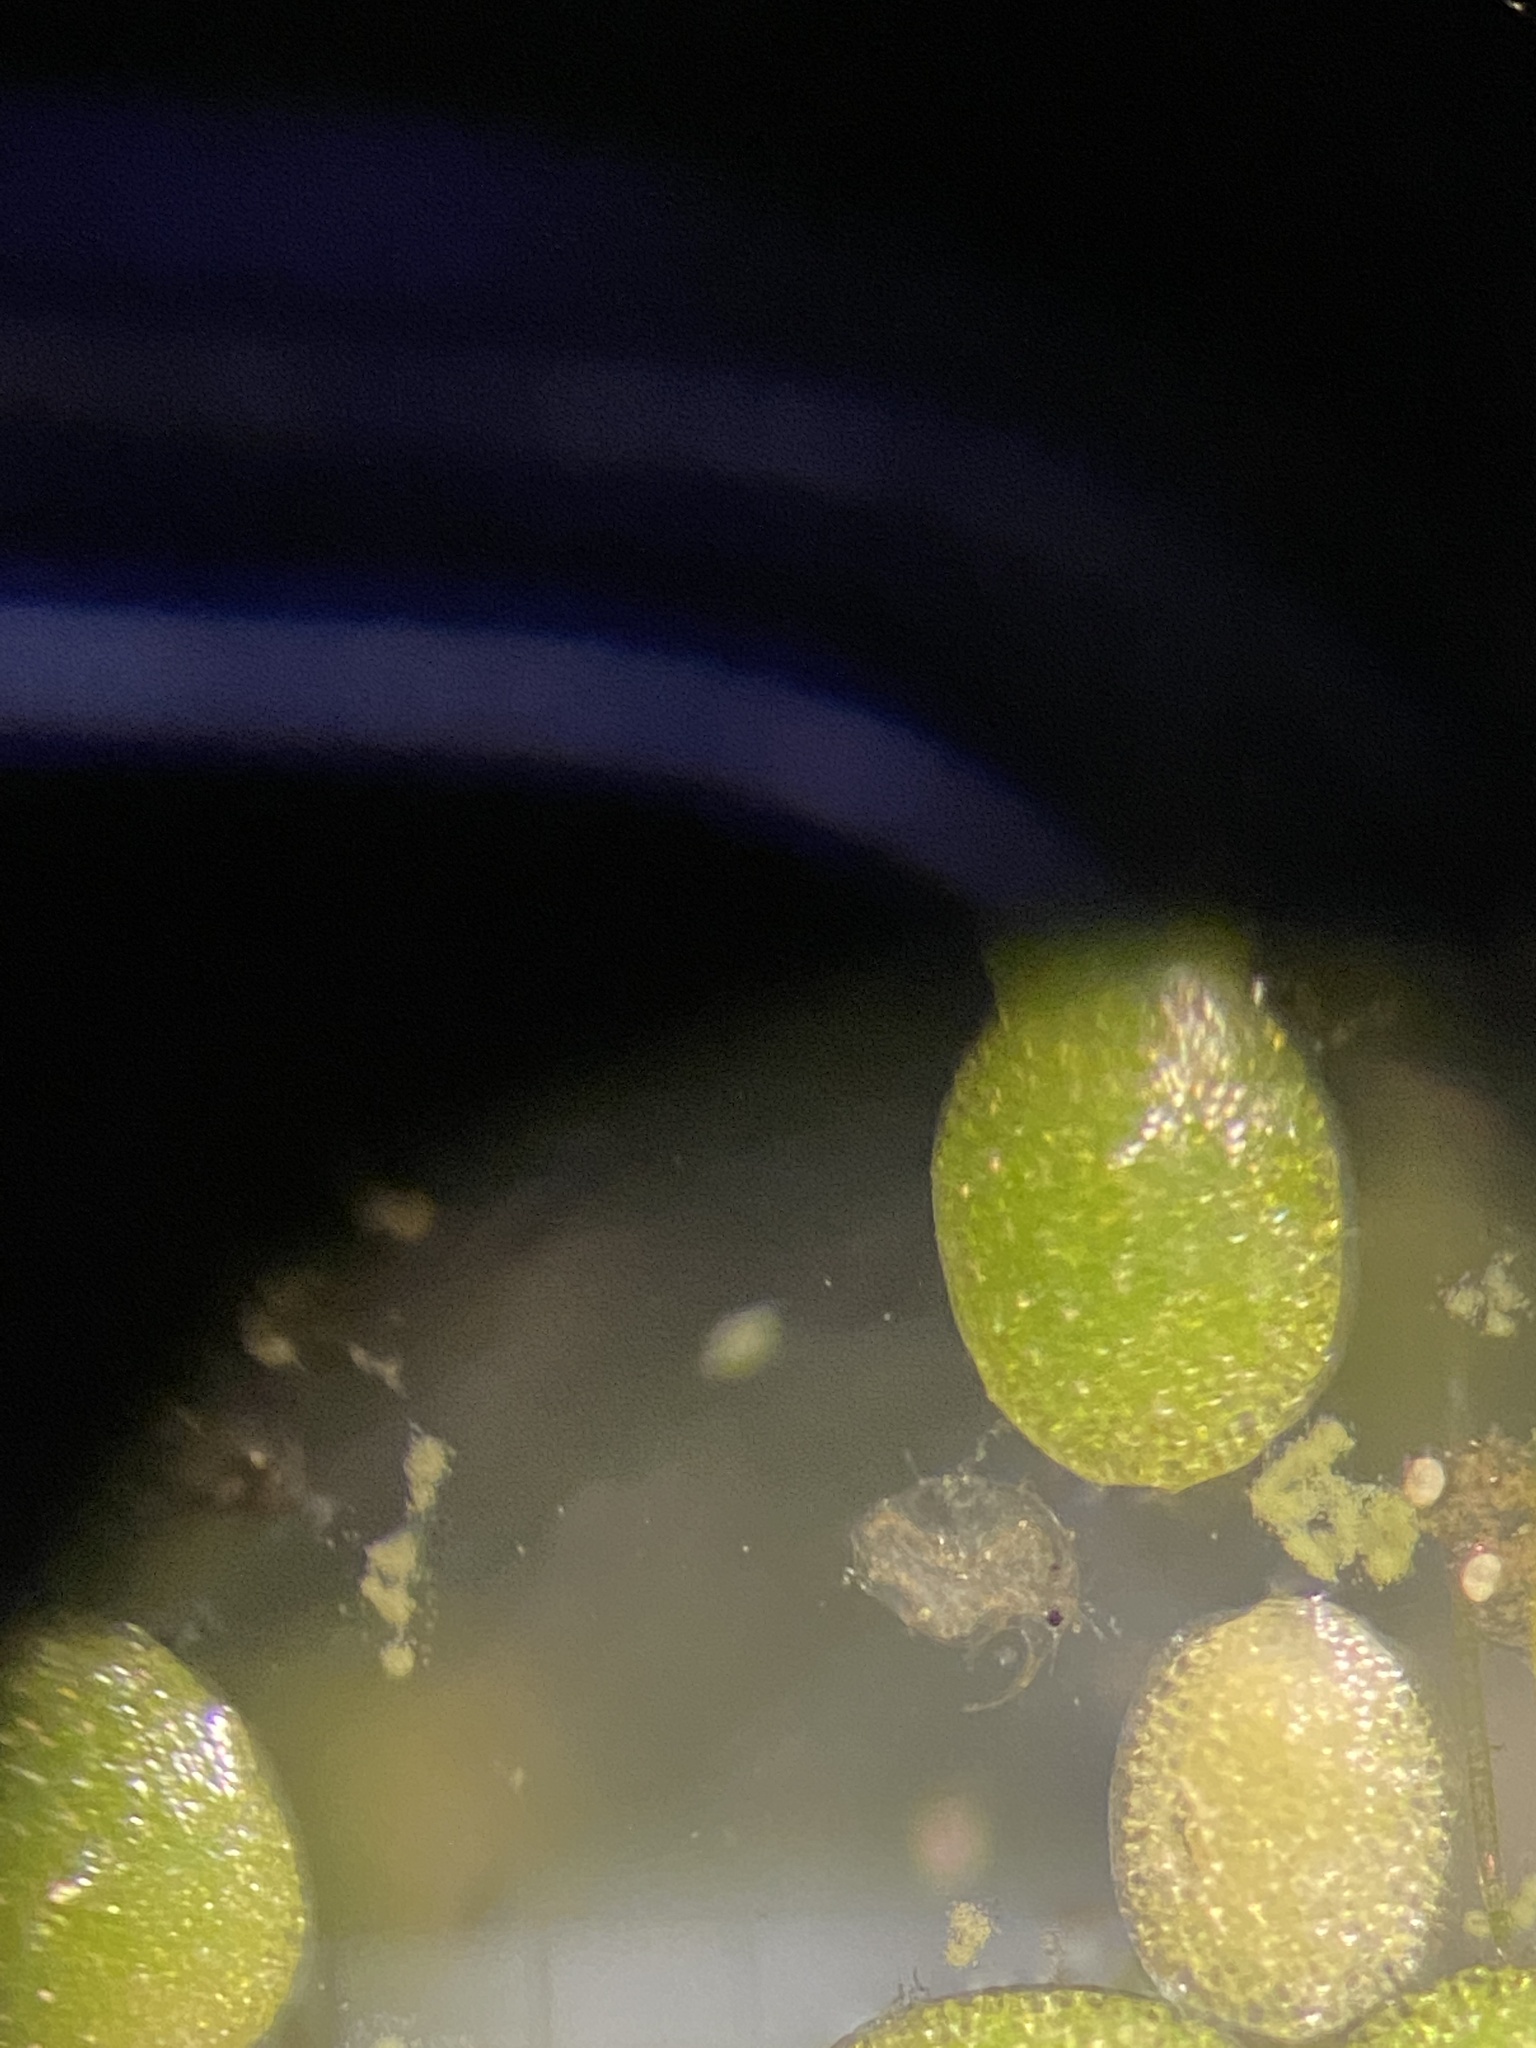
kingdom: Plantae
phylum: Tracheophyta
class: Liliopsida
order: Alismatales
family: Araceae
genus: Wolffia
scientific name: Wolffia brasiliensis
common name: Brazilian watermeal
